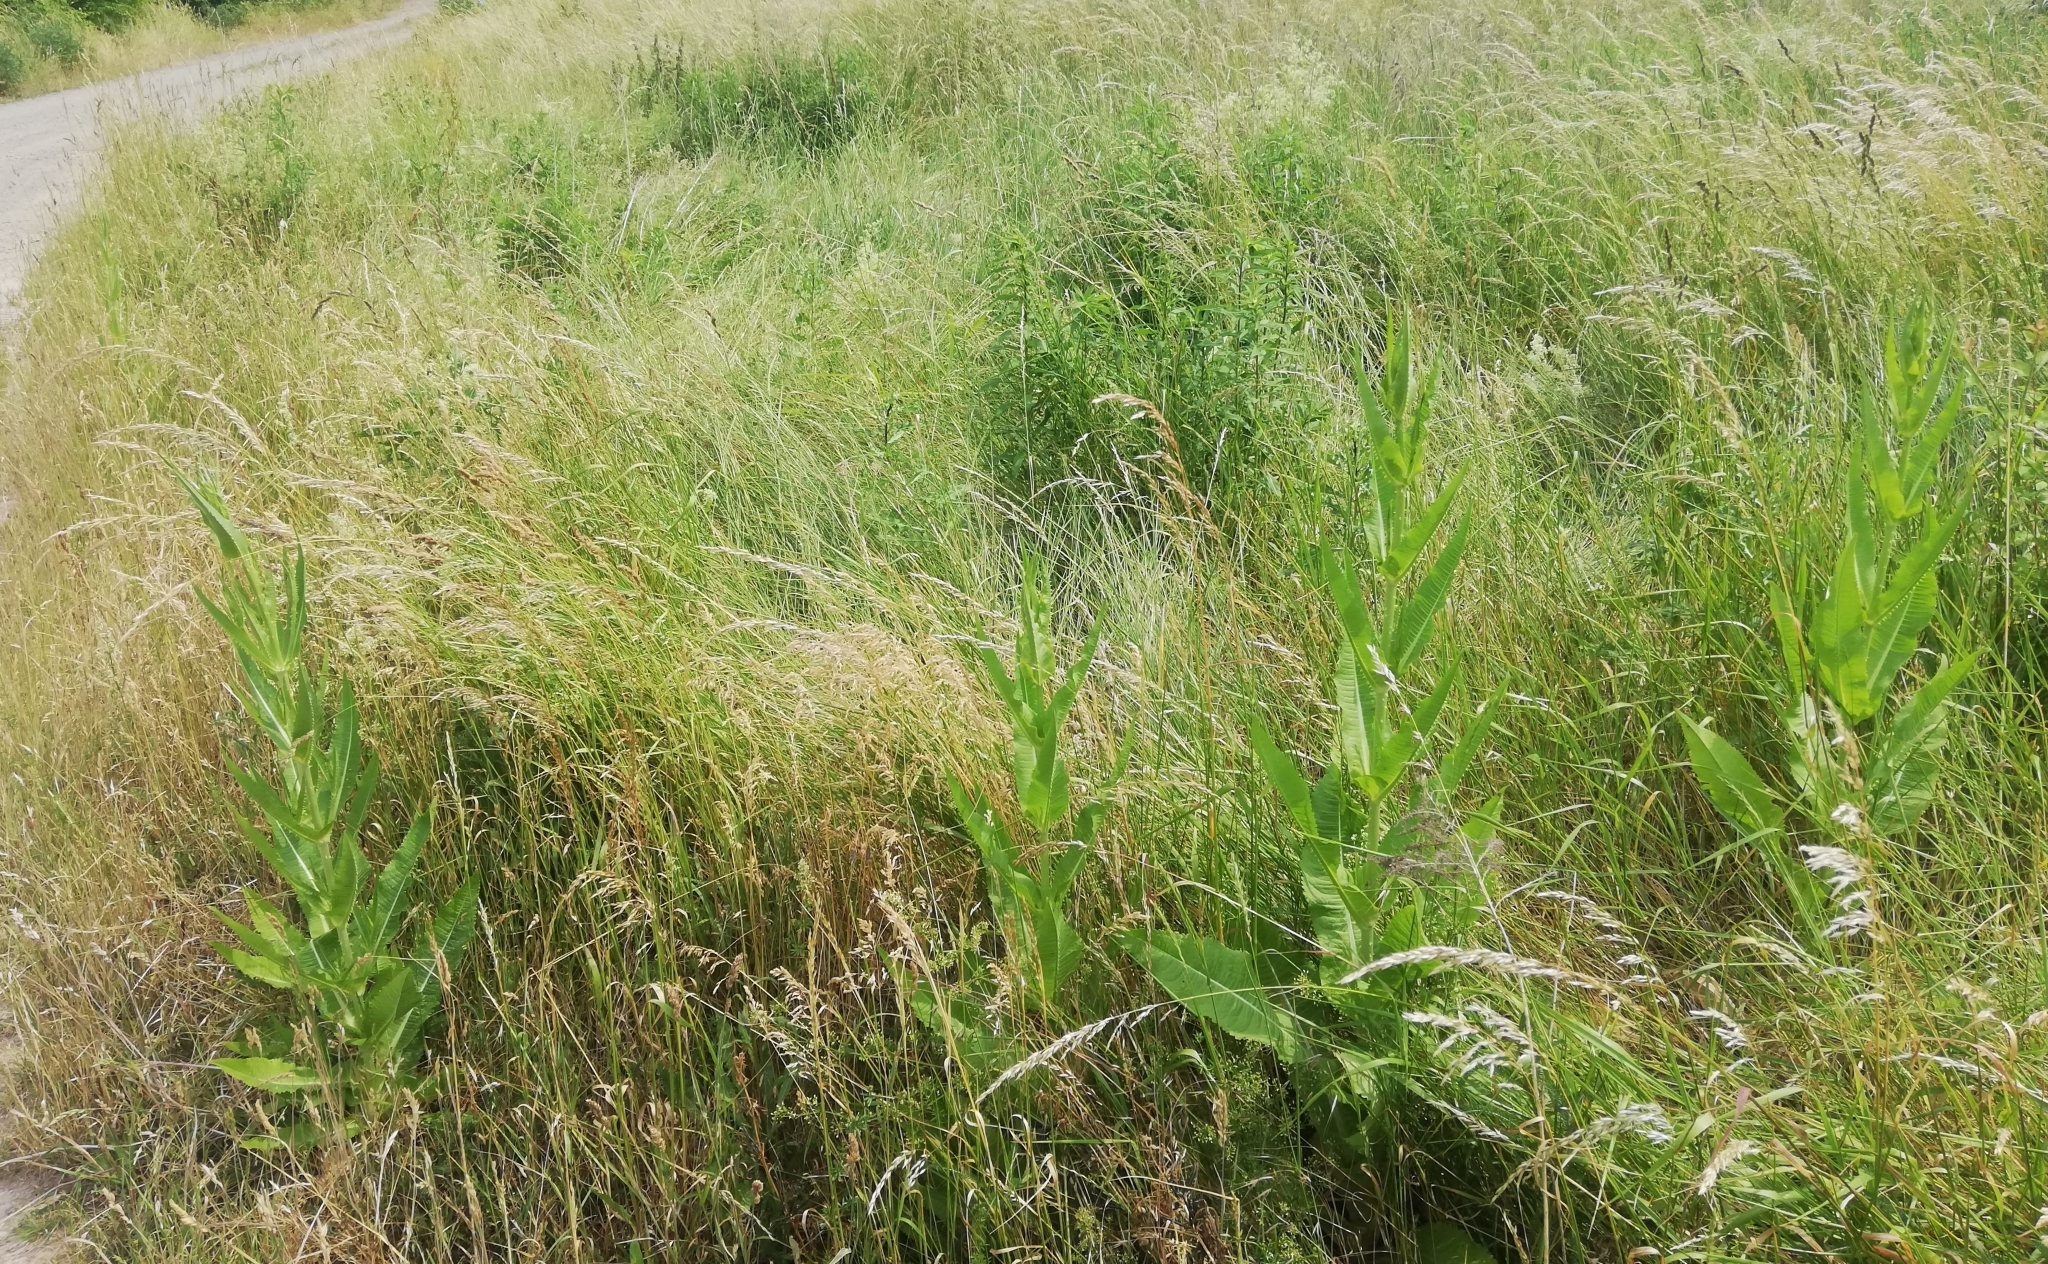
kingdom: Plantae
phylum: Tracheophyta
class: Magnoliopsida
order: Dipsacales
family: Caprifoliaceae
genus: Dipsacus
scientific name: Dipsacus fullonum
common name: Teasel
